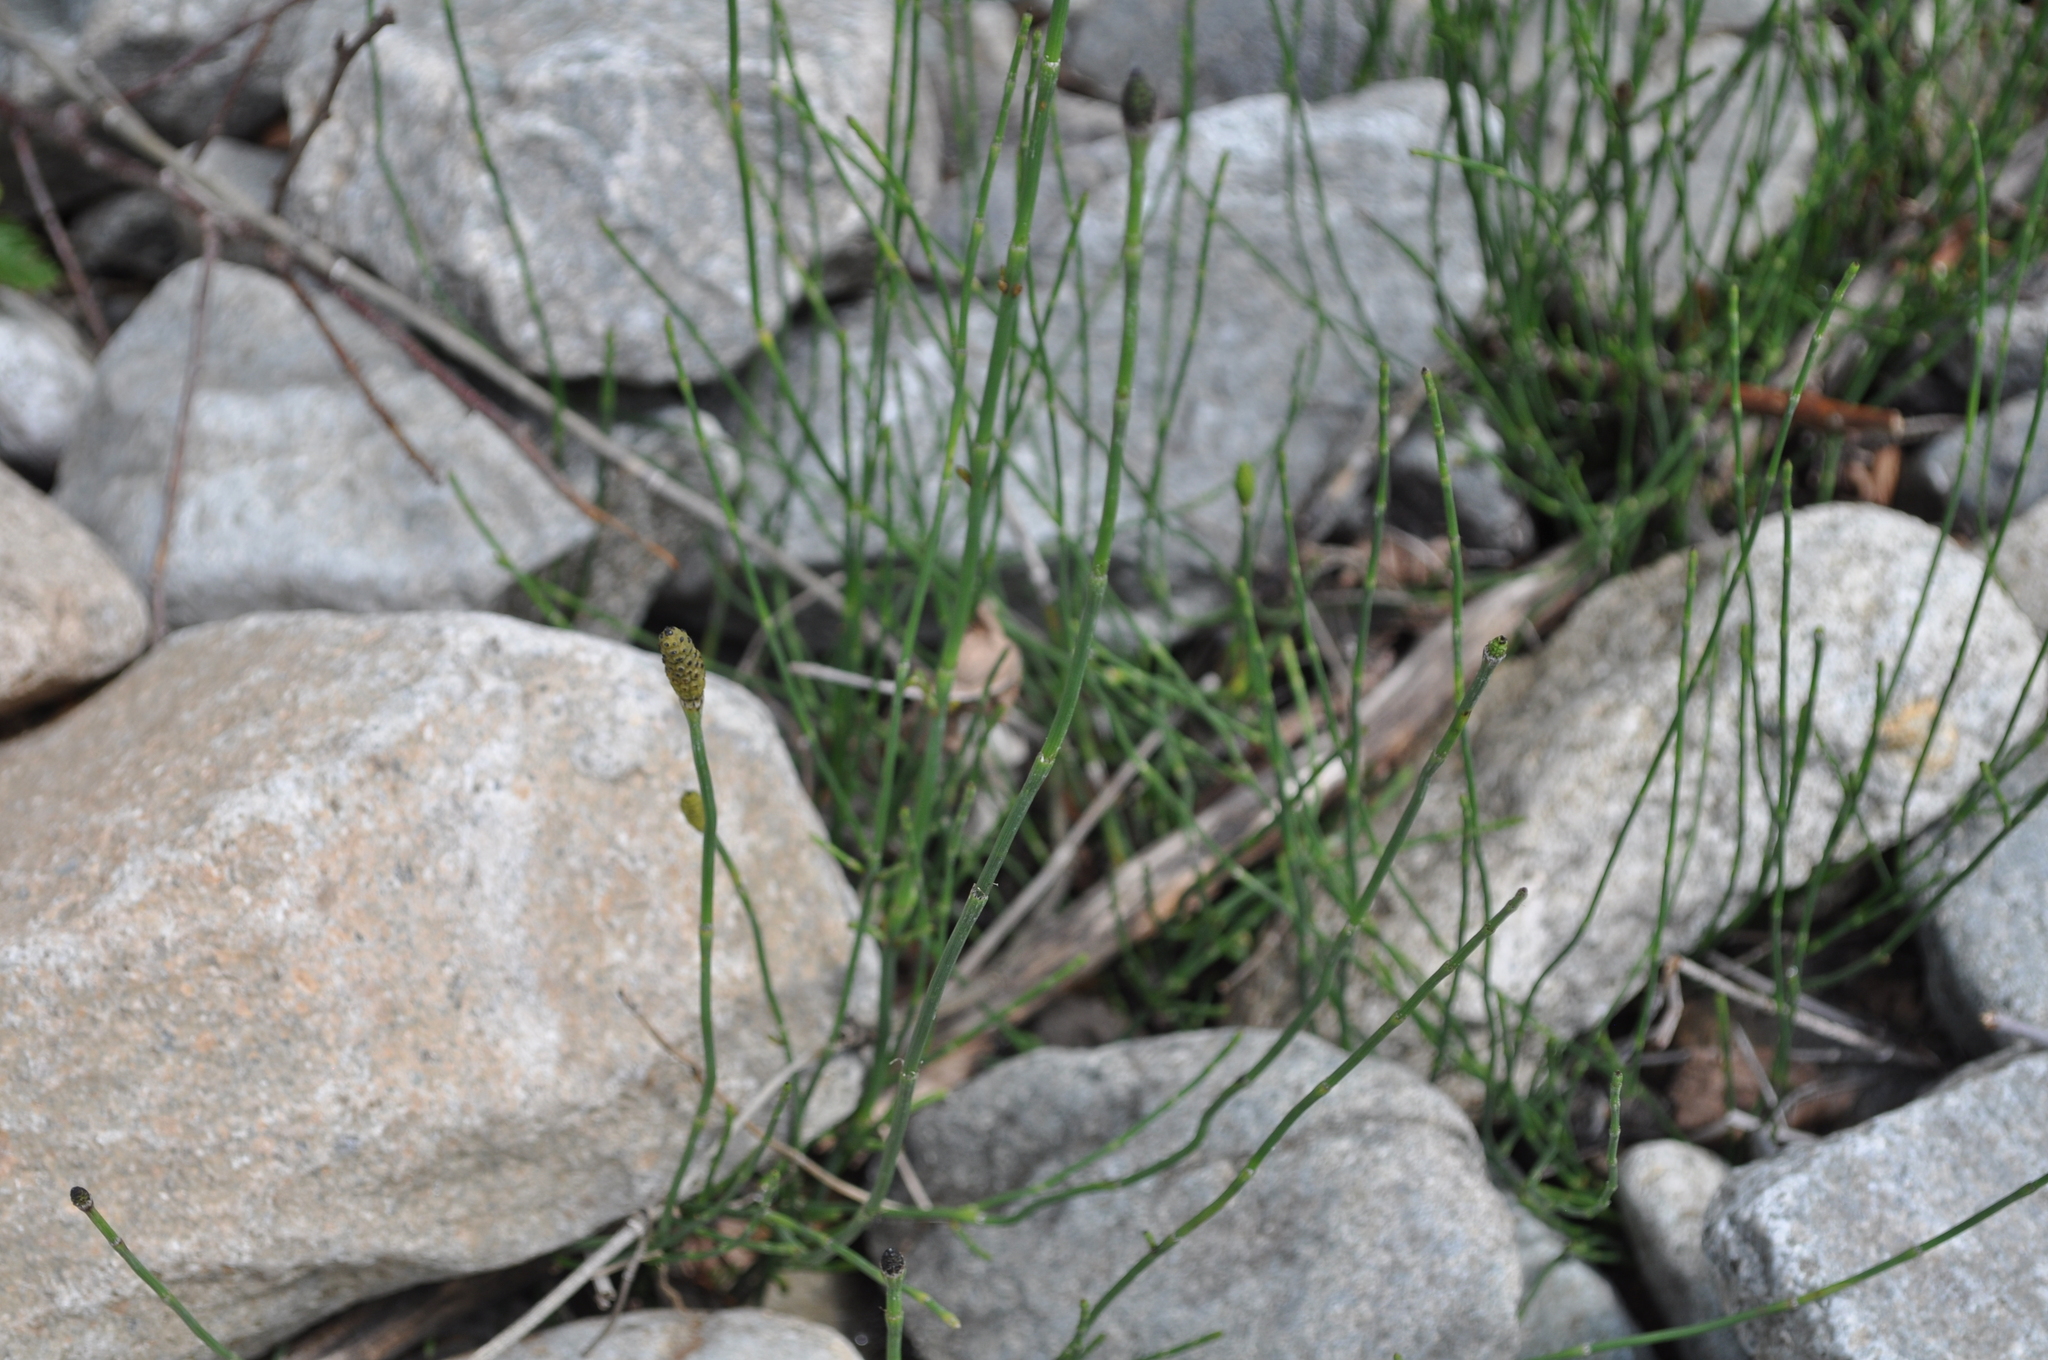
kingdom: Plantae
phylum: Tracheophyta
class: Polypodiopsida
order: Equisetales
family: Equisetaceae
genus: Equisetum
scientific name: Equisetum ramosissimum
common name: Branched horsetail
